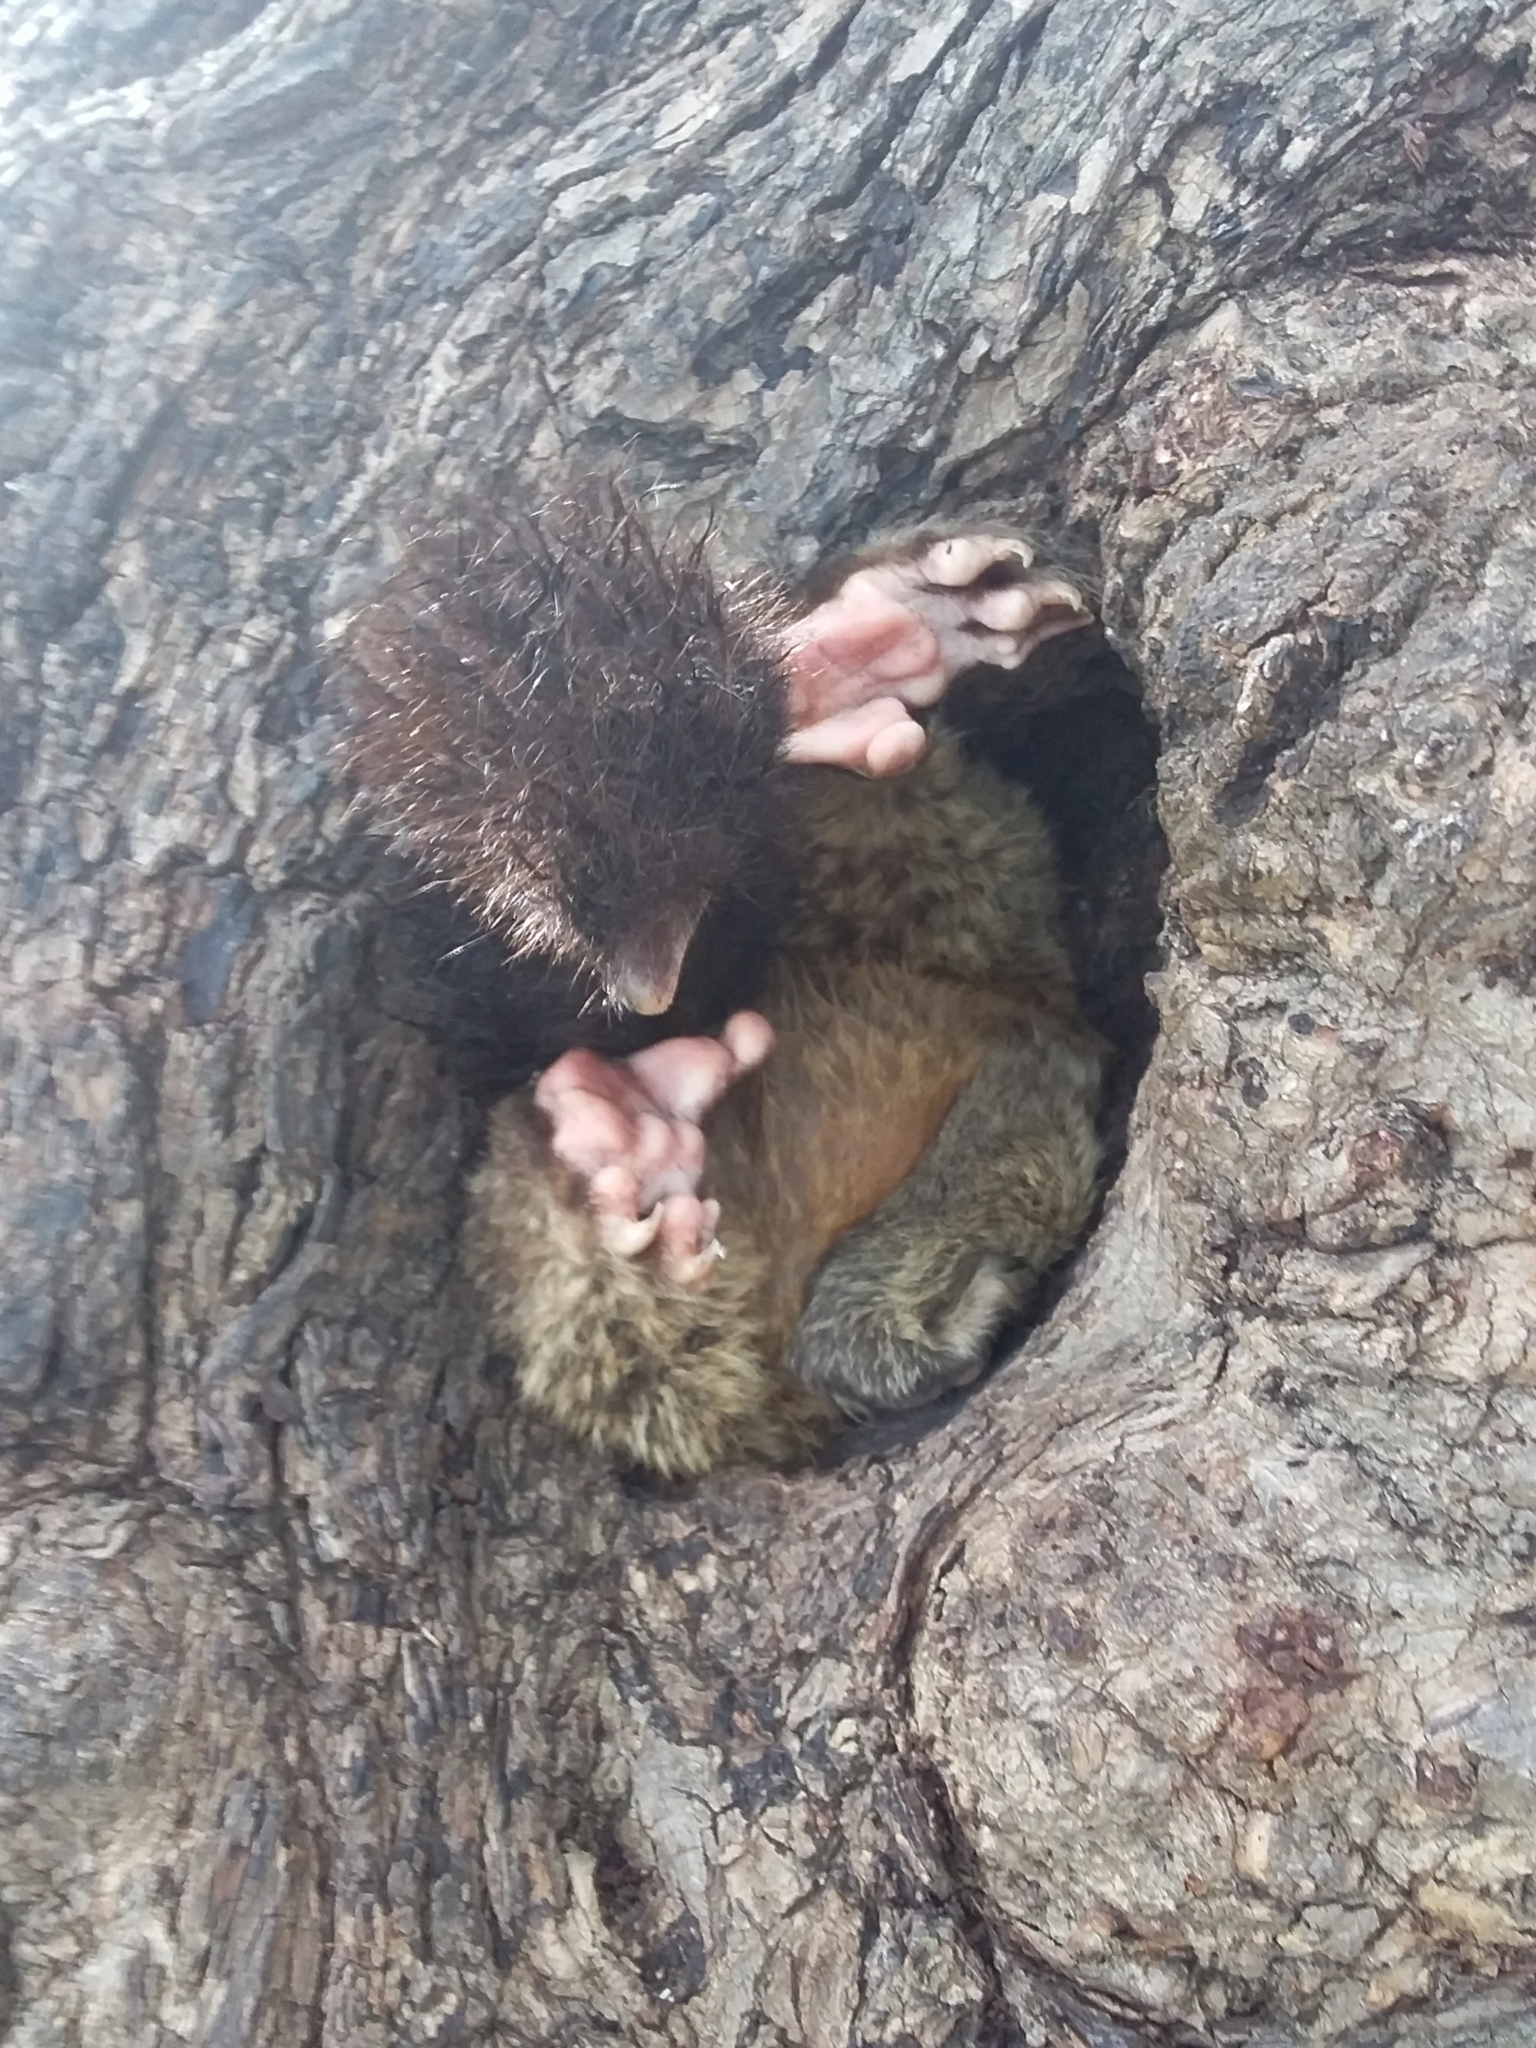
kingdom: Animalia
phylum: Chordata
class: Mammalia
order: Diprotodontia
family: Phalangeridae
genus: Trichosurus
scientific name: Trichosurus vulpecula
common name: Common brushtail
